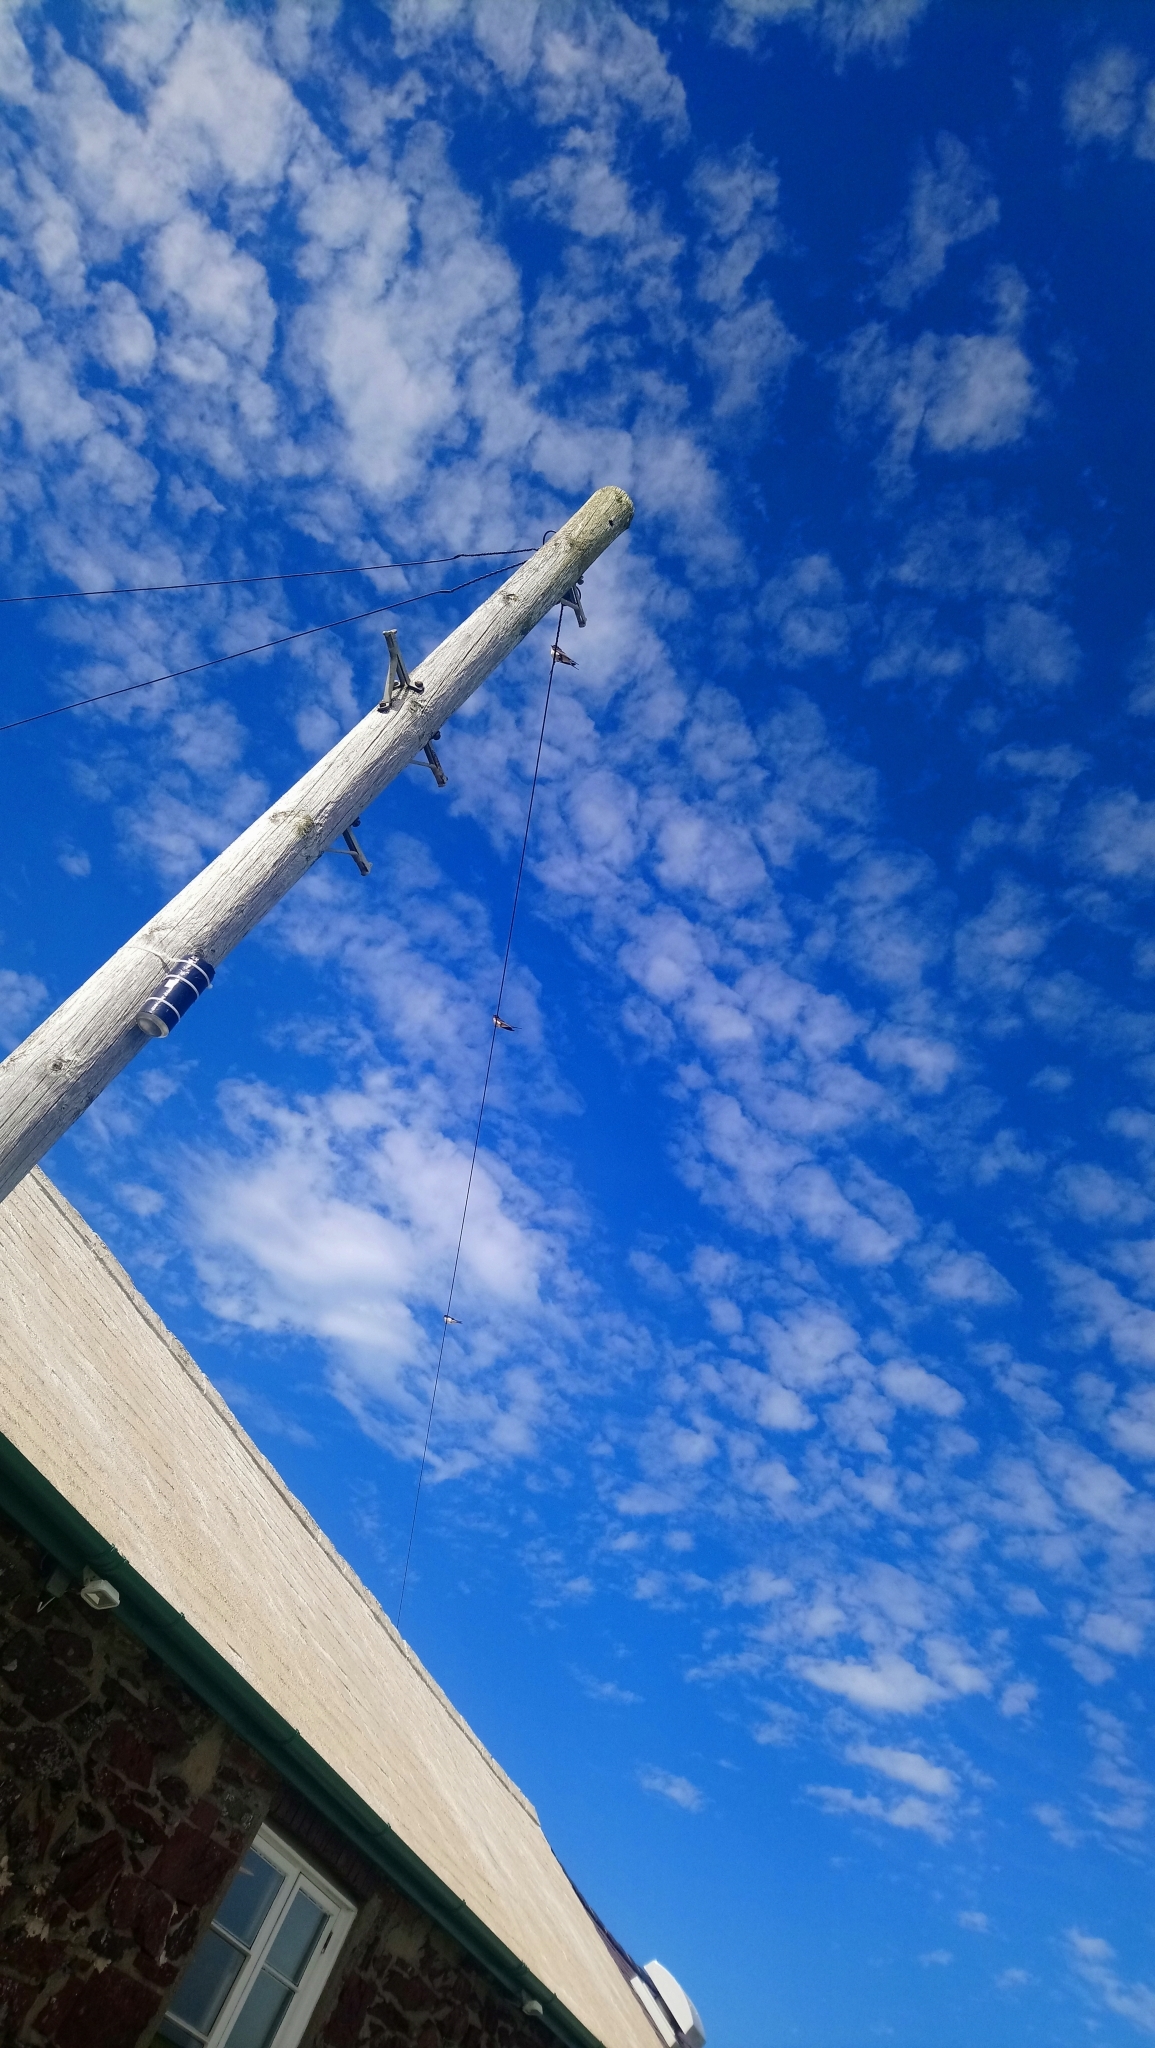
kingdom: Animalia
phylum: Chordata
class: Aves
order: Passeriformes
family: Hirundinidae
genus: Hirundo
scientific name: Hirundo rustica
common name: Barn swallow
